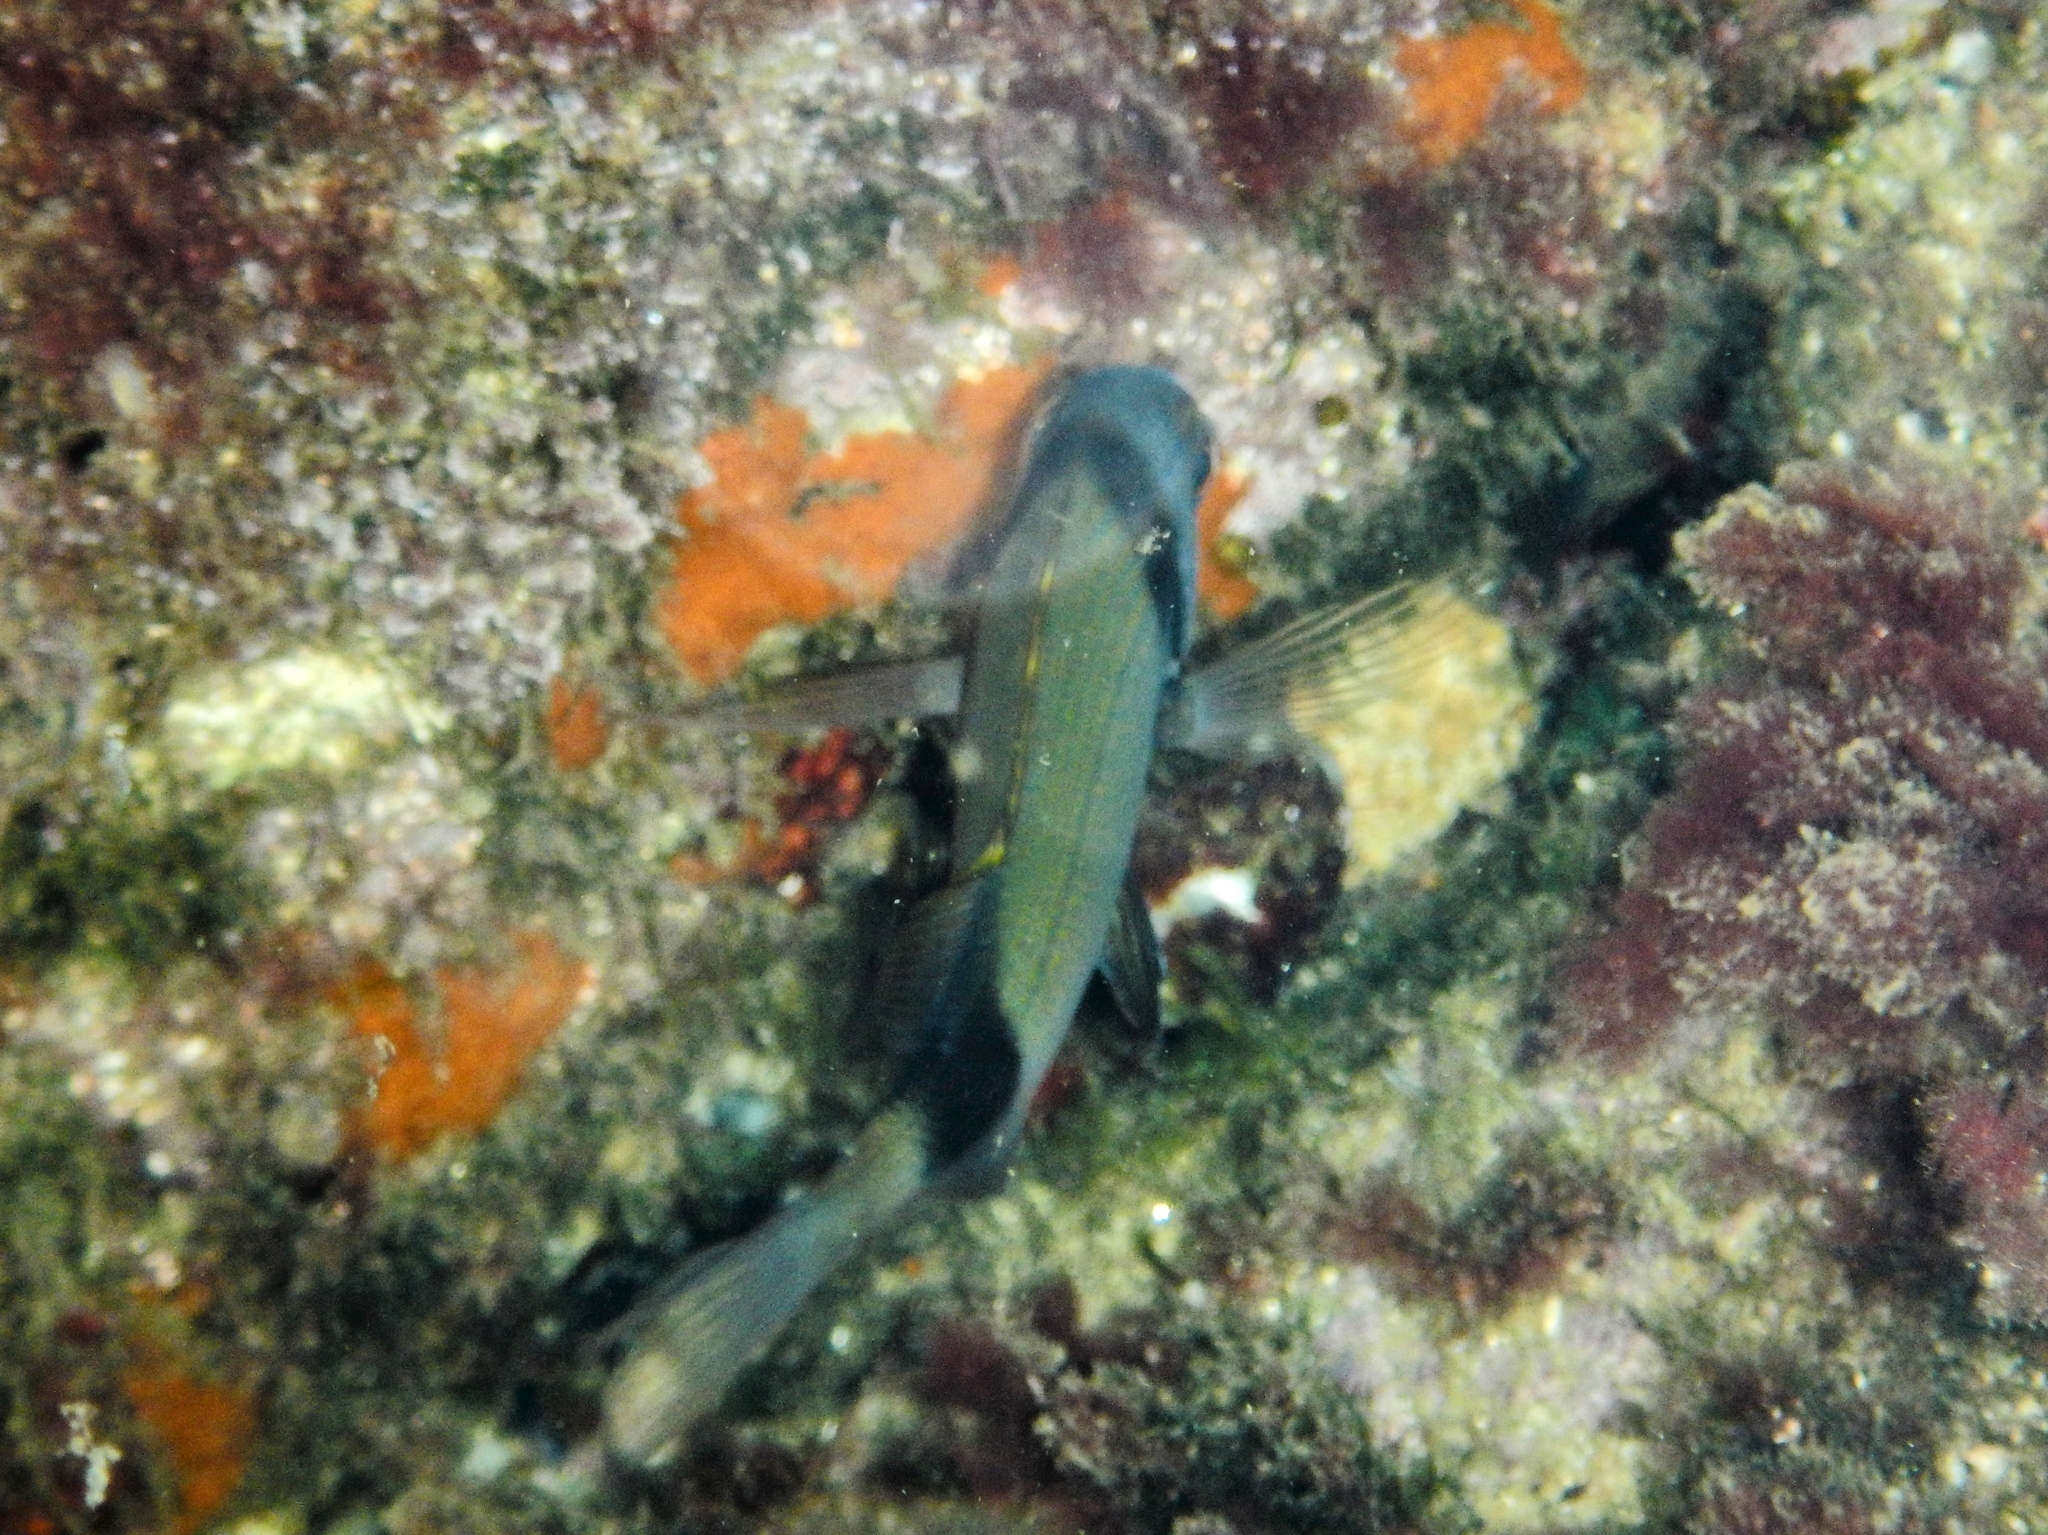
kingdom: Animalia
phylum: Chordata
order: Perciformes
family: Sparidae
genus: Diplodus
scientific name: Diplodus vulgaris
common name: Common two-banded seabream
